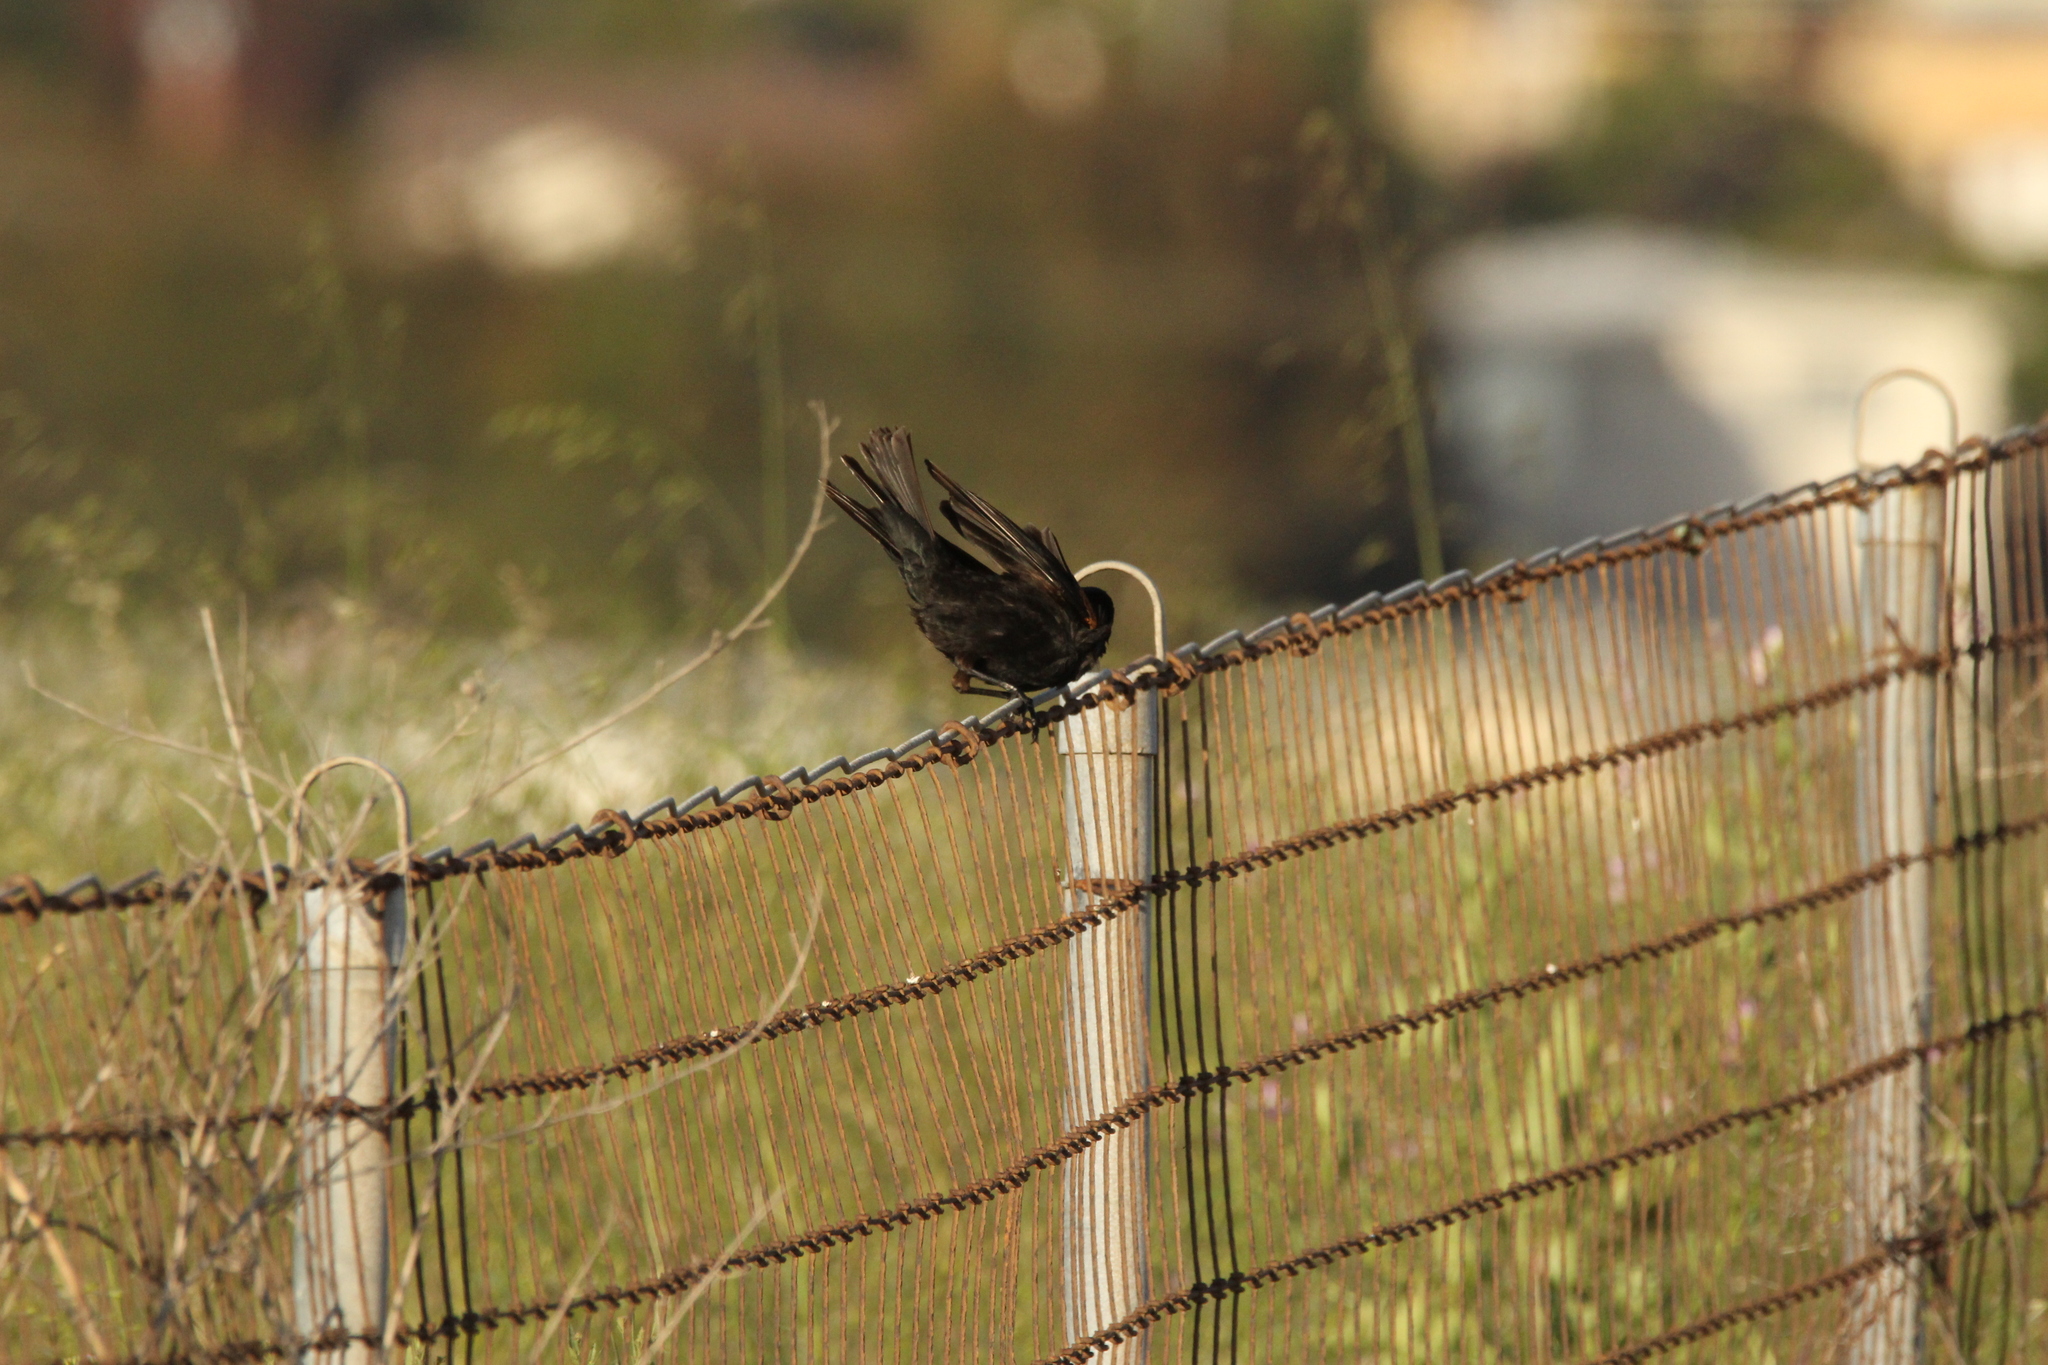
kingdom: Animalia
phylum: Chordata
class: Aves
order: Passeriformes
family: Icteridae
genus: Agelaius
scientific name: Agelaius phoeniceus
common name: Red-winged blackbird
